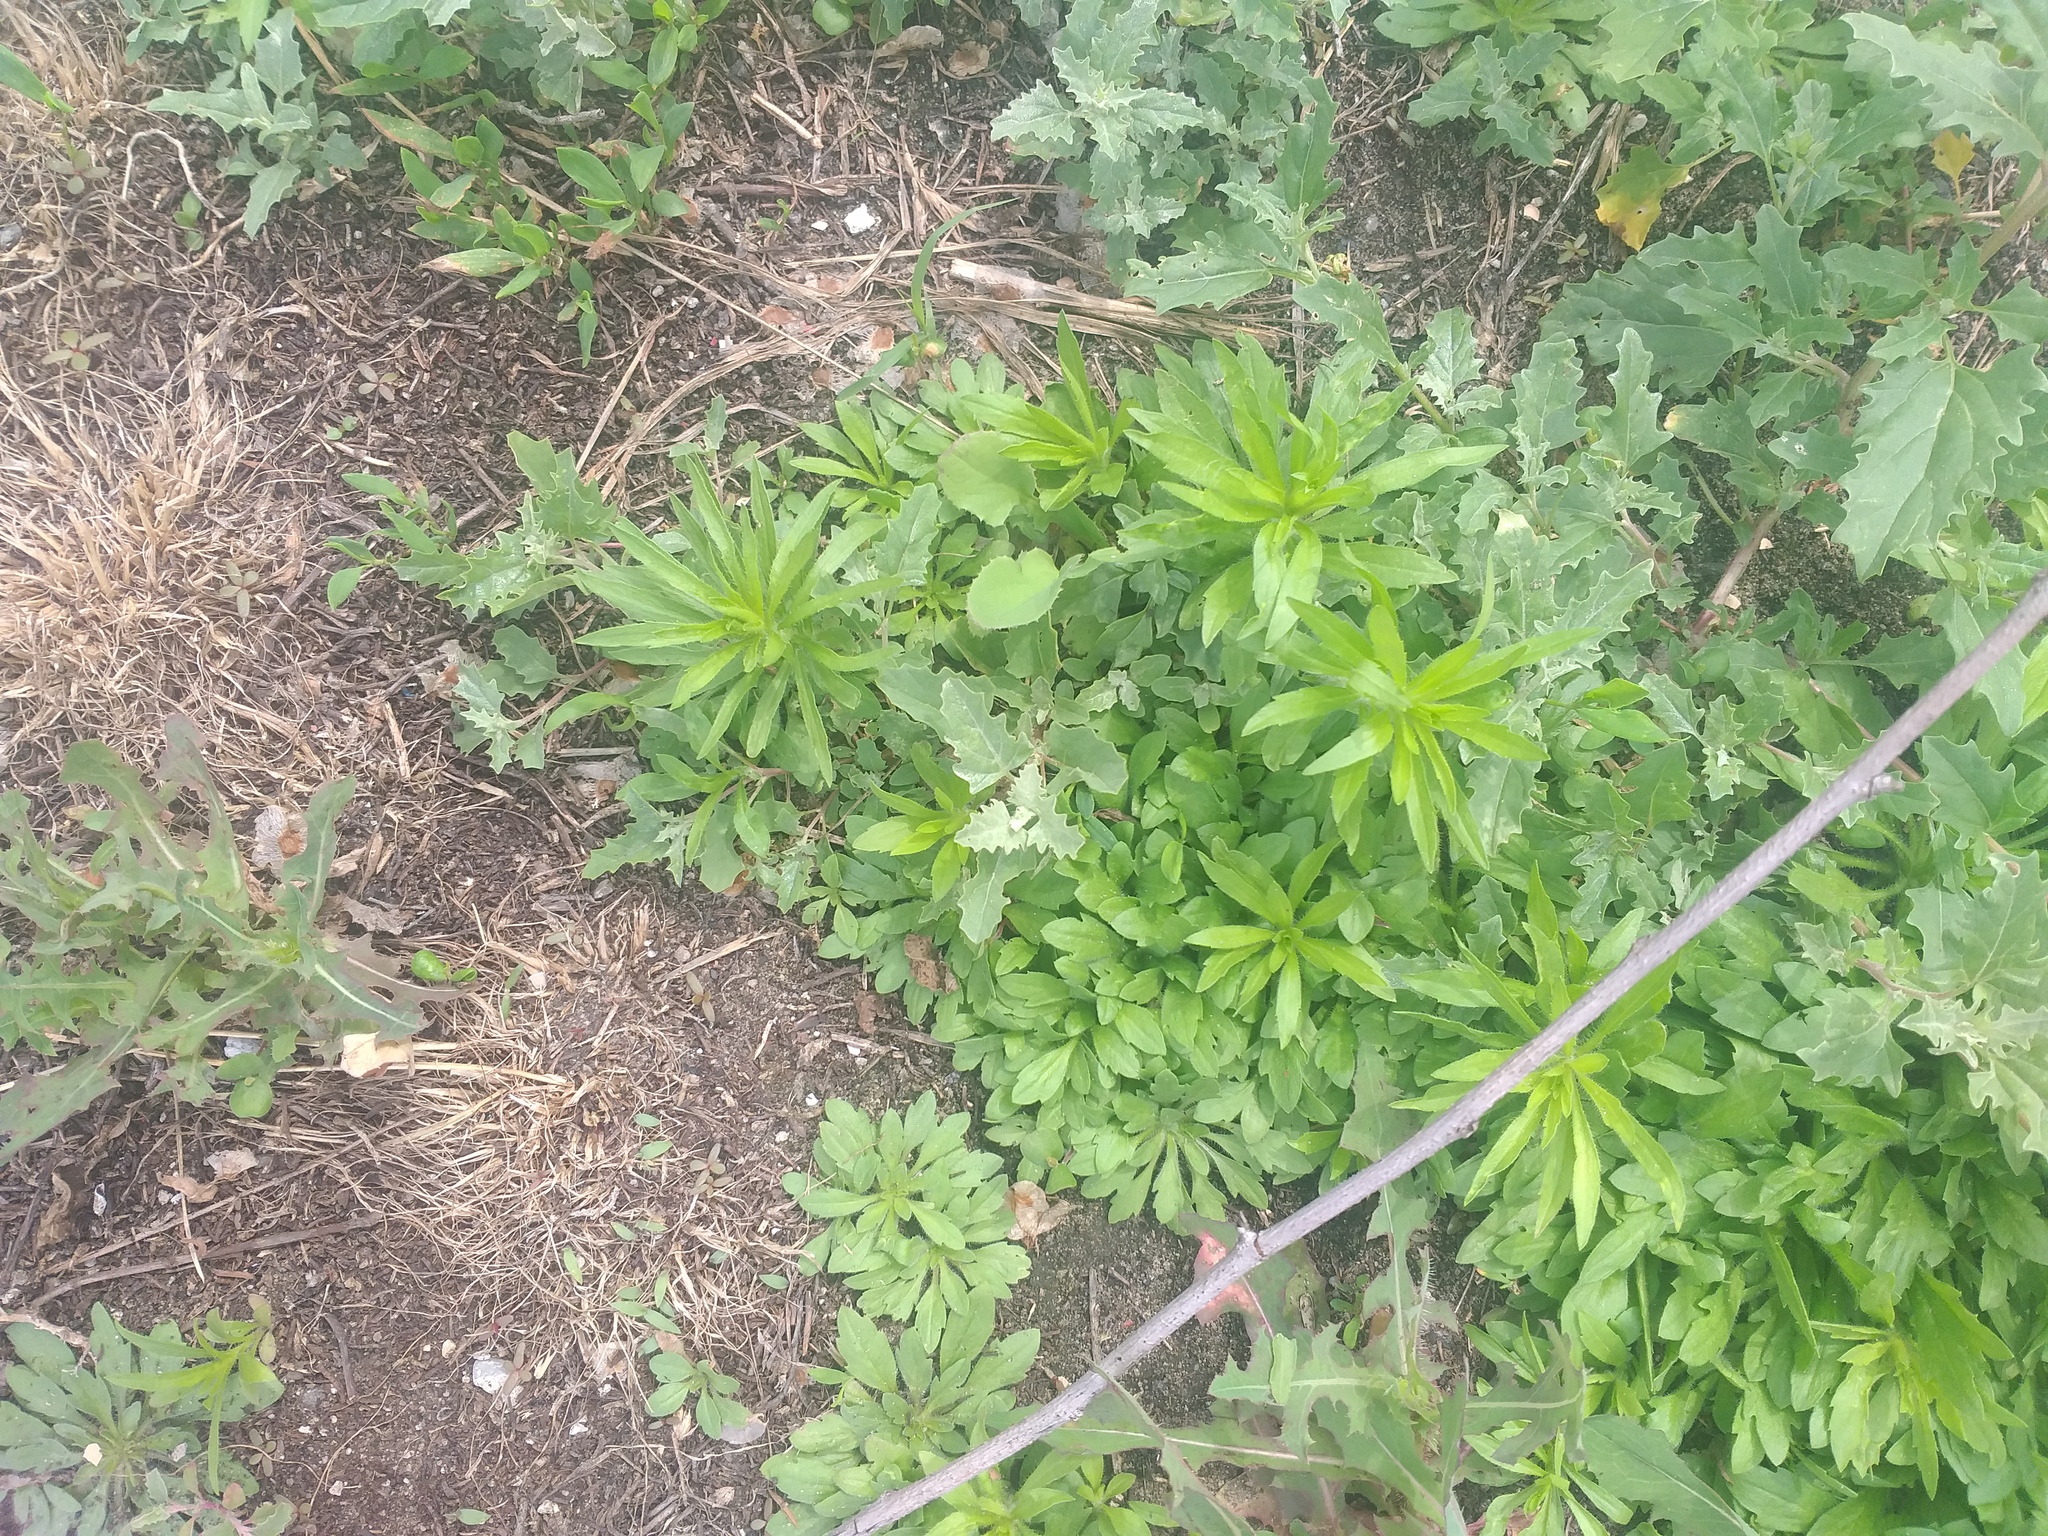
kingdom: Plantae
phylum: Tracheophyta
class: Magnoliopsida
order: Asterales
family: Asteraceae
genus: Erigeron
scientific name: Erigeron canadensis
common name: Canadian fleabane
